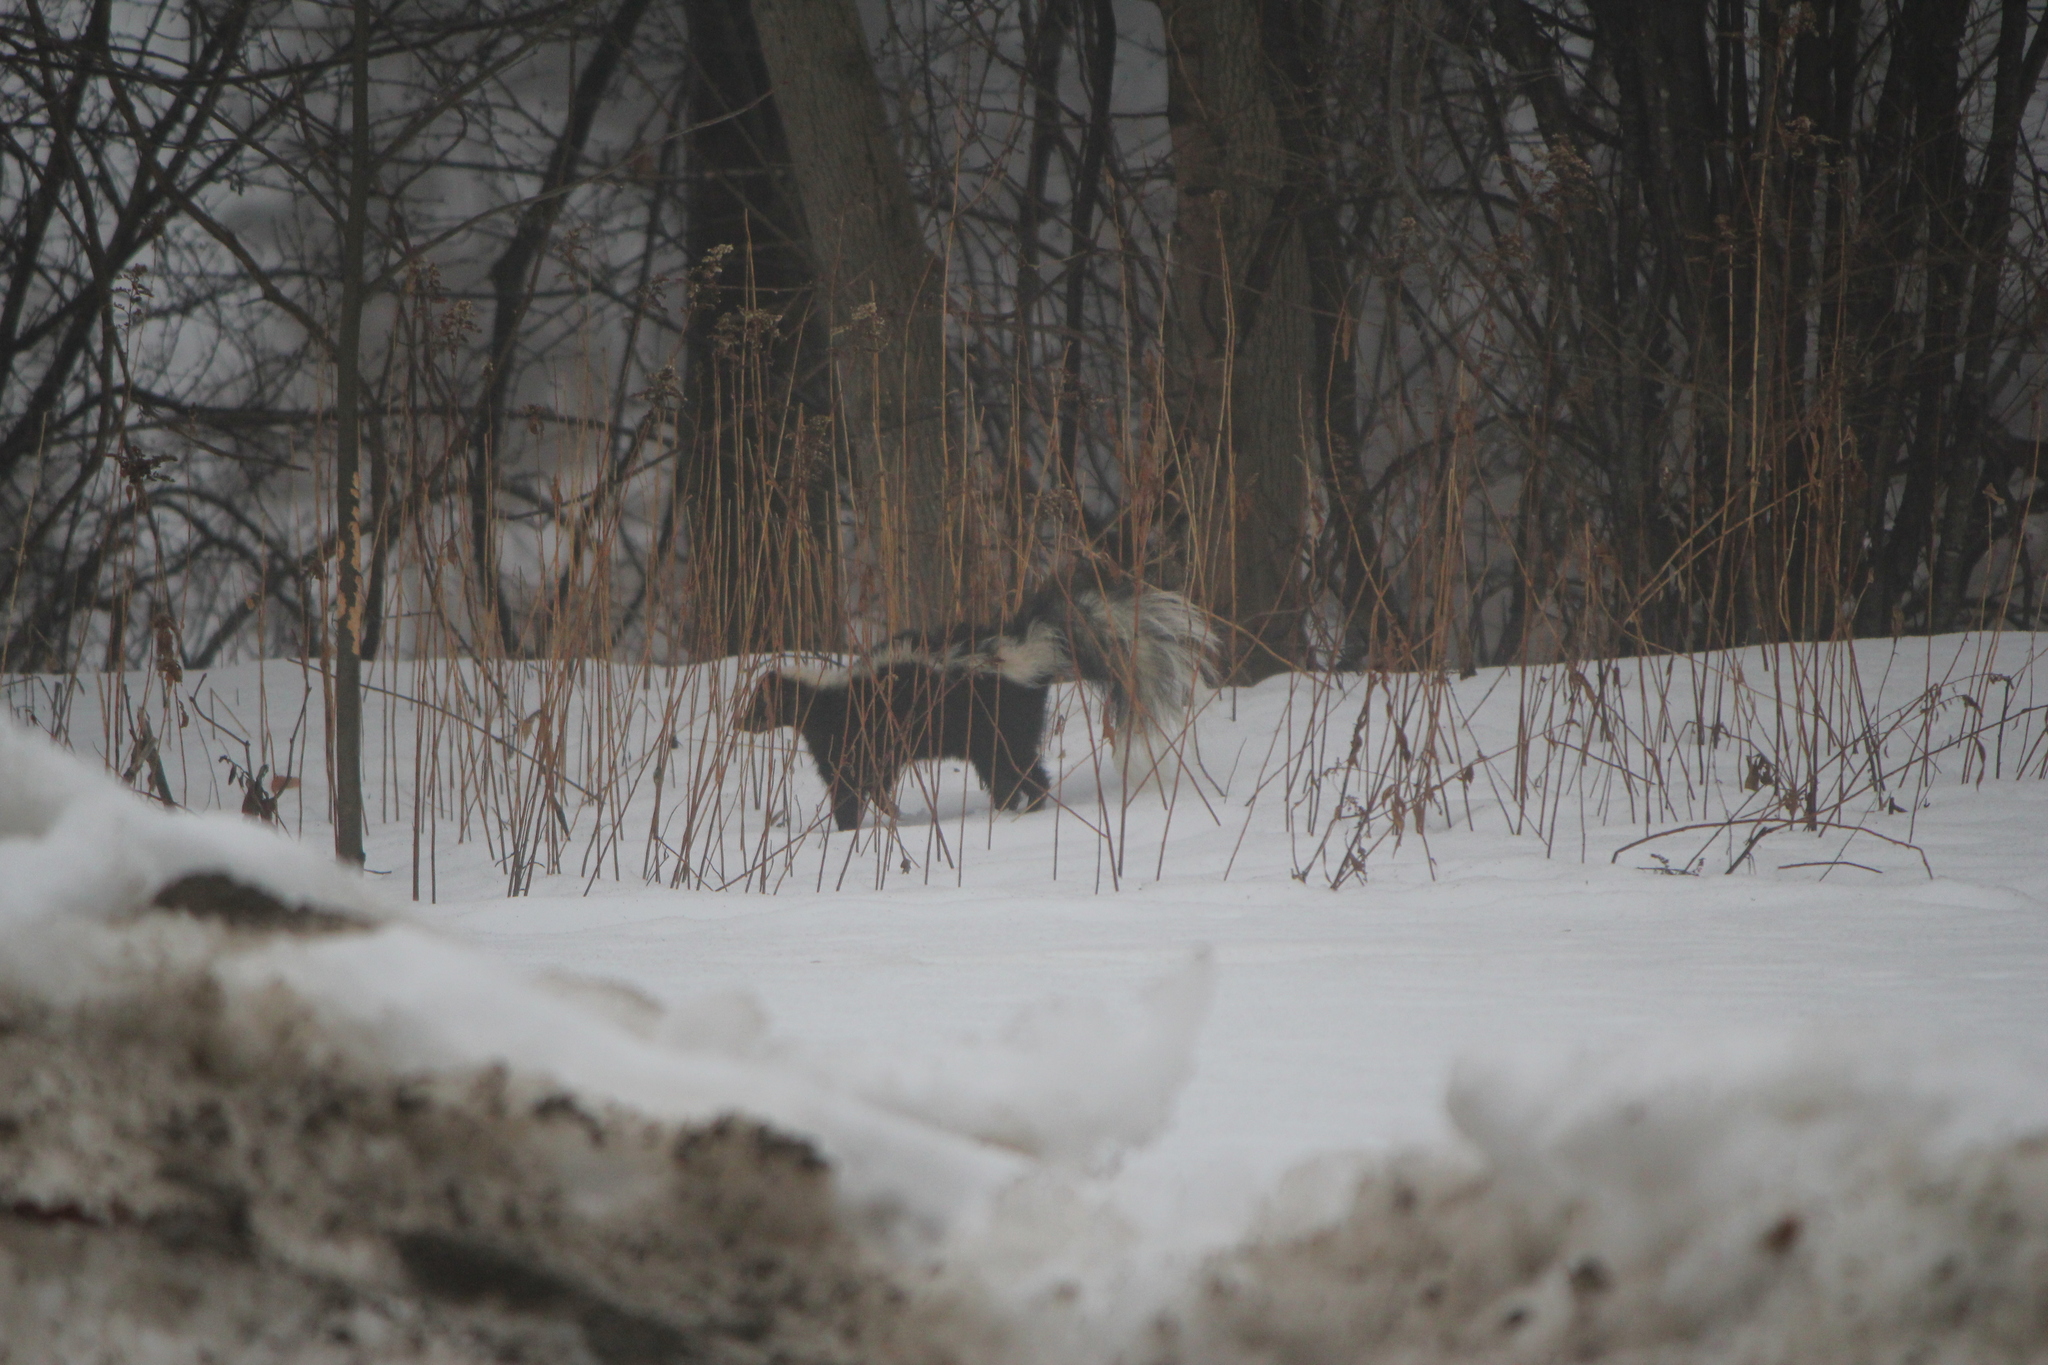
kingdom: Animalia
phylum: Chordata
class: Mammalia
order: Carnivora
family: Mephitidae
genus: Mephitis
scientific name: Mephitis mephitis
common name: Striped skunk
